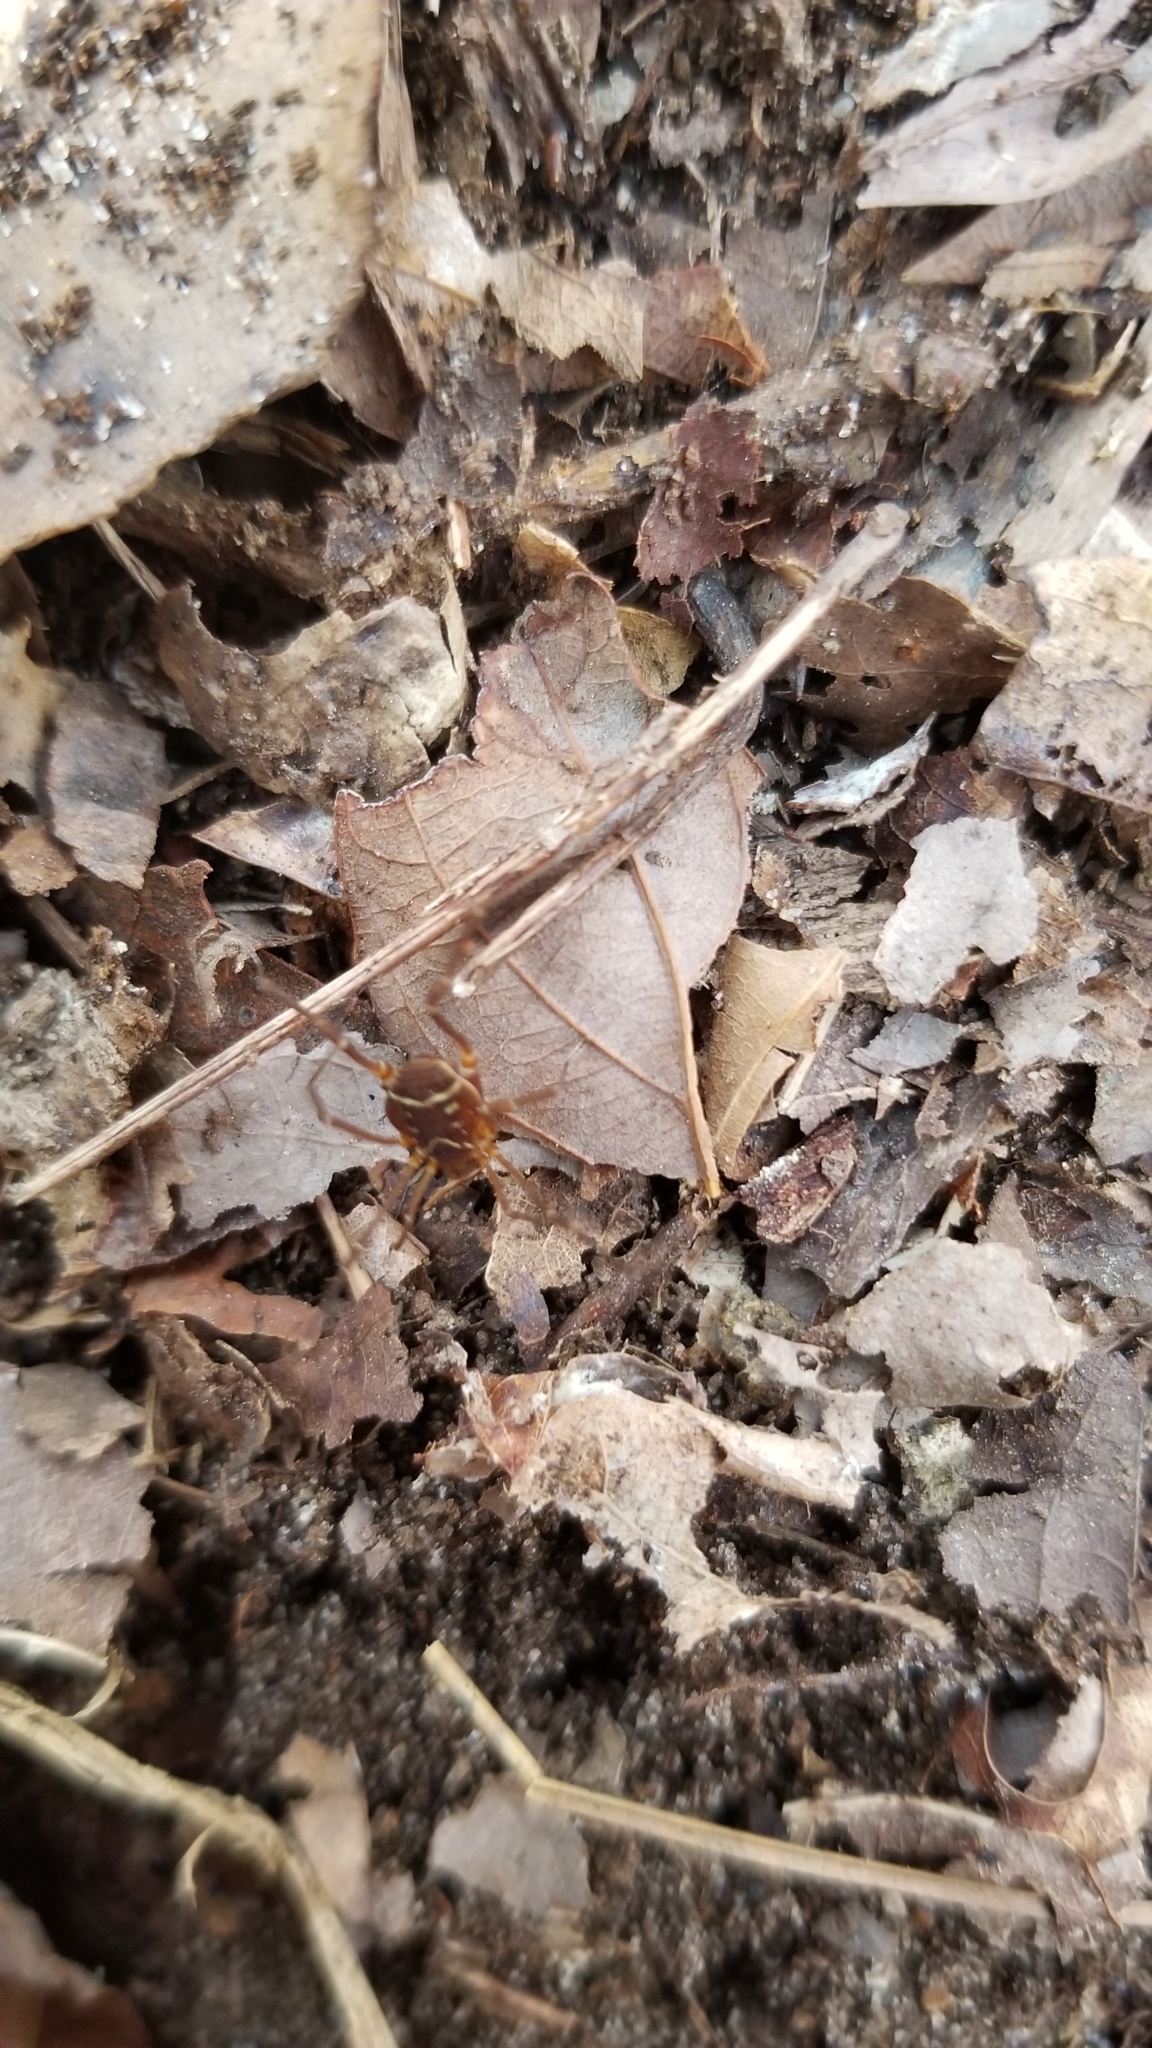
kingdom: Animalia
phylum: Arthropoda
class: Arachnida
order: Opiliones
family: Cosmetidae
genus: Libitioides
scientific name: Libitioides sayi
